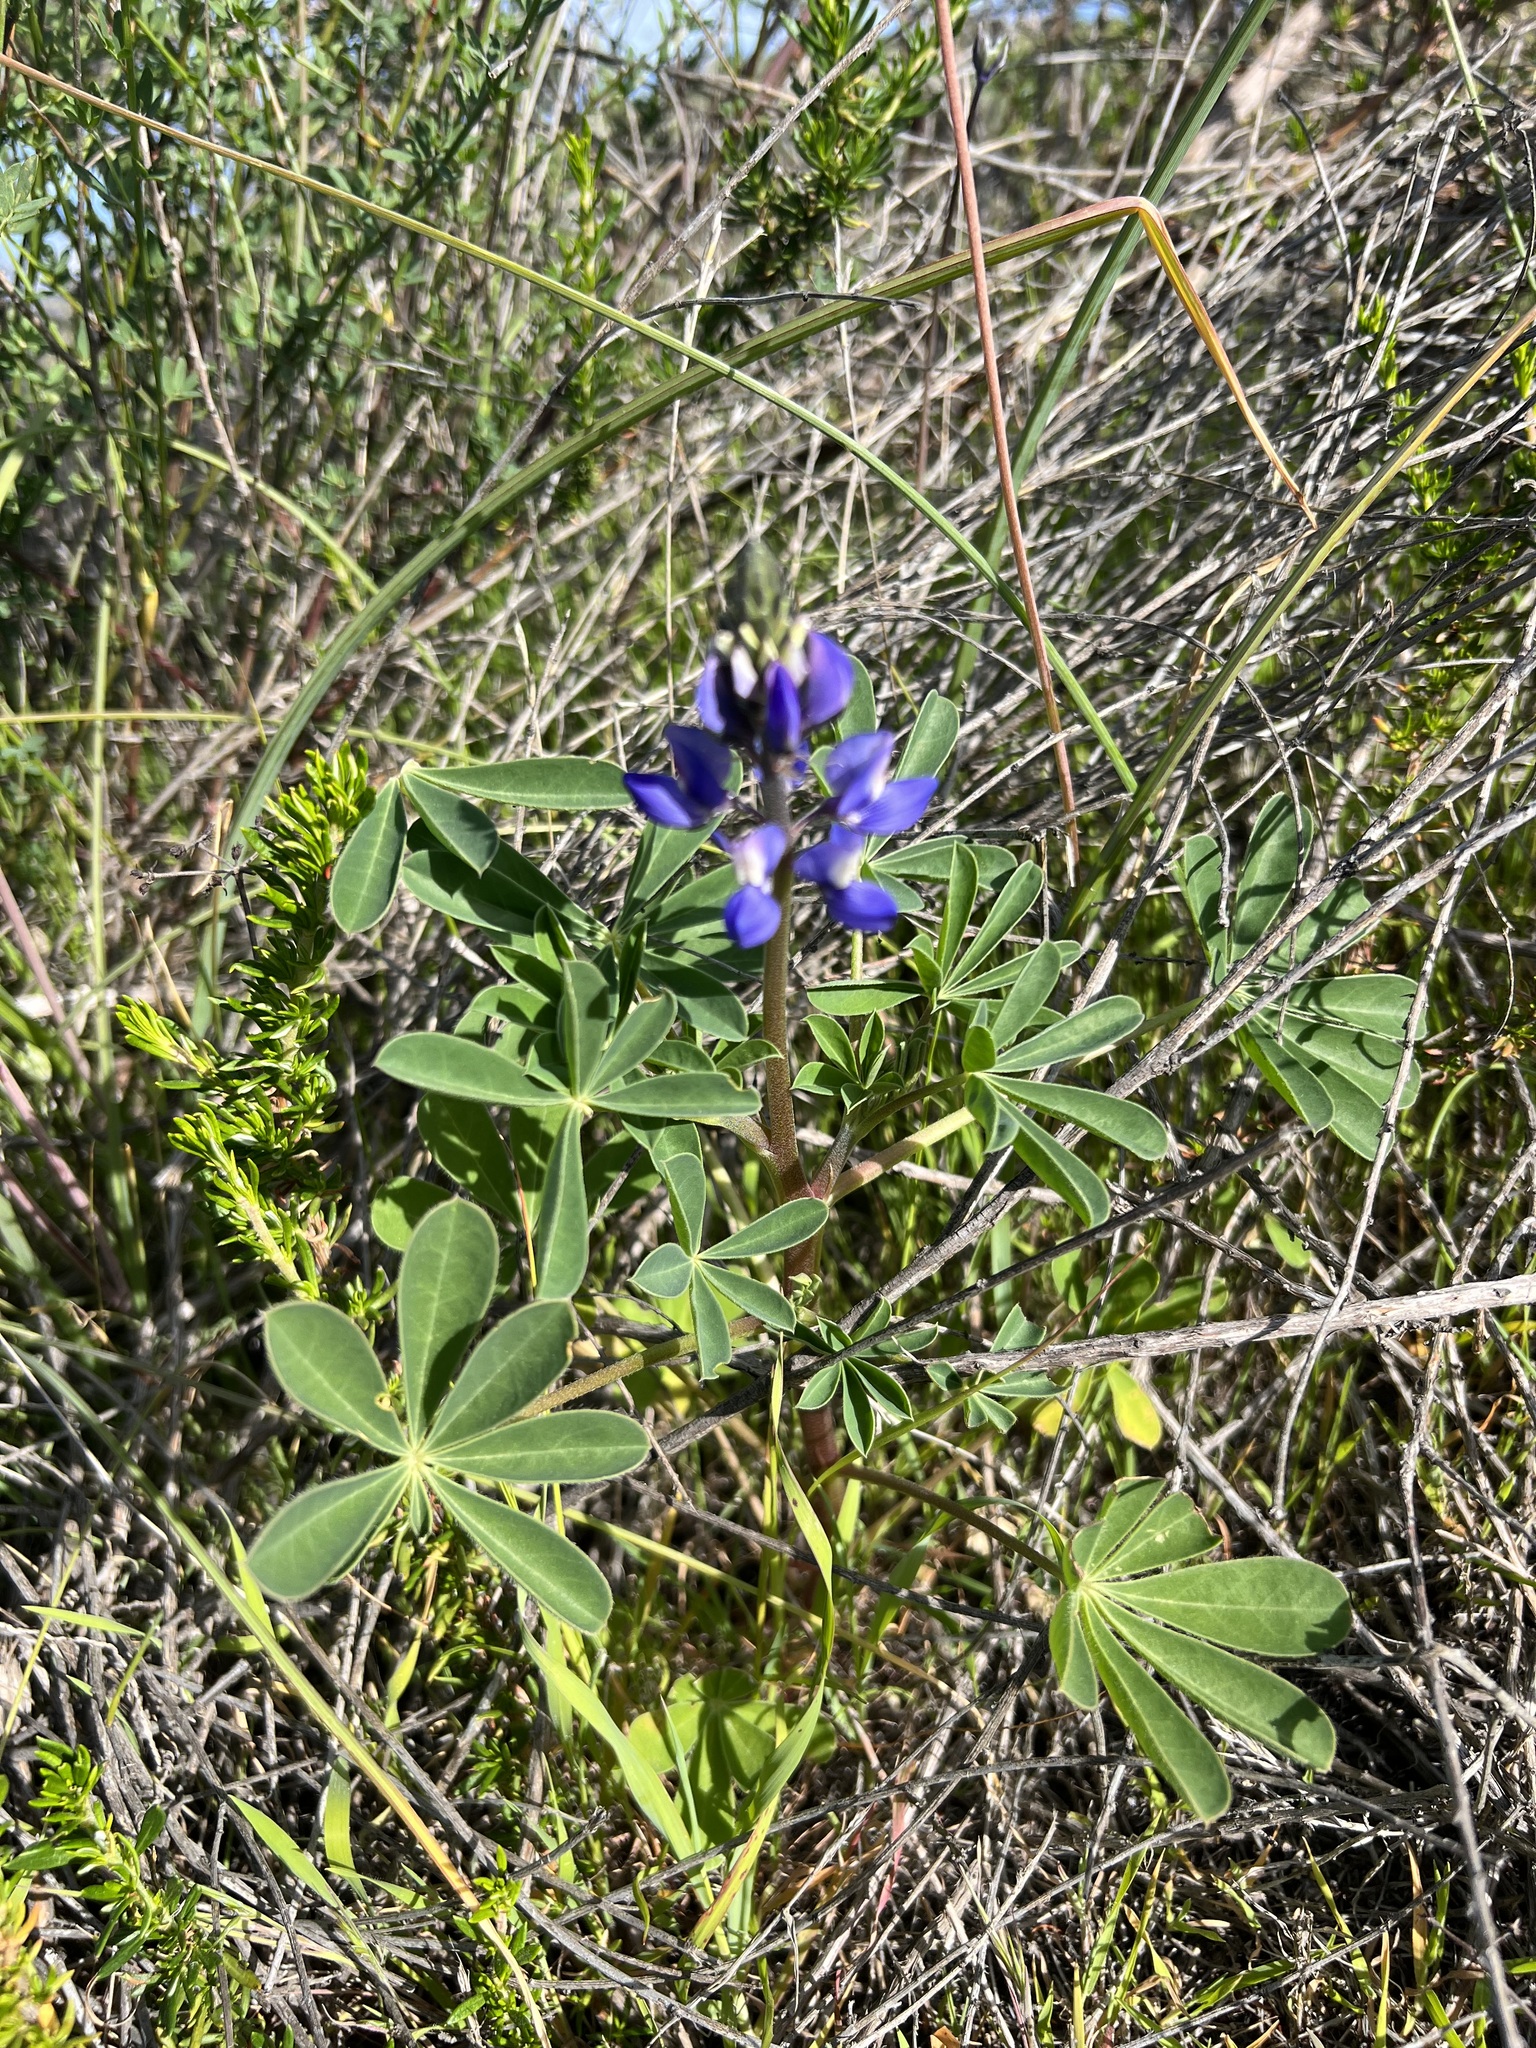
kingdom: Plantae
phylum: Tracheophyta
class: Magnoliopsida
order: Fabales
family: Fabaceae
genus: Lupinus
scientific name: Lupinus succulentus
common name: Arroyo lupine
